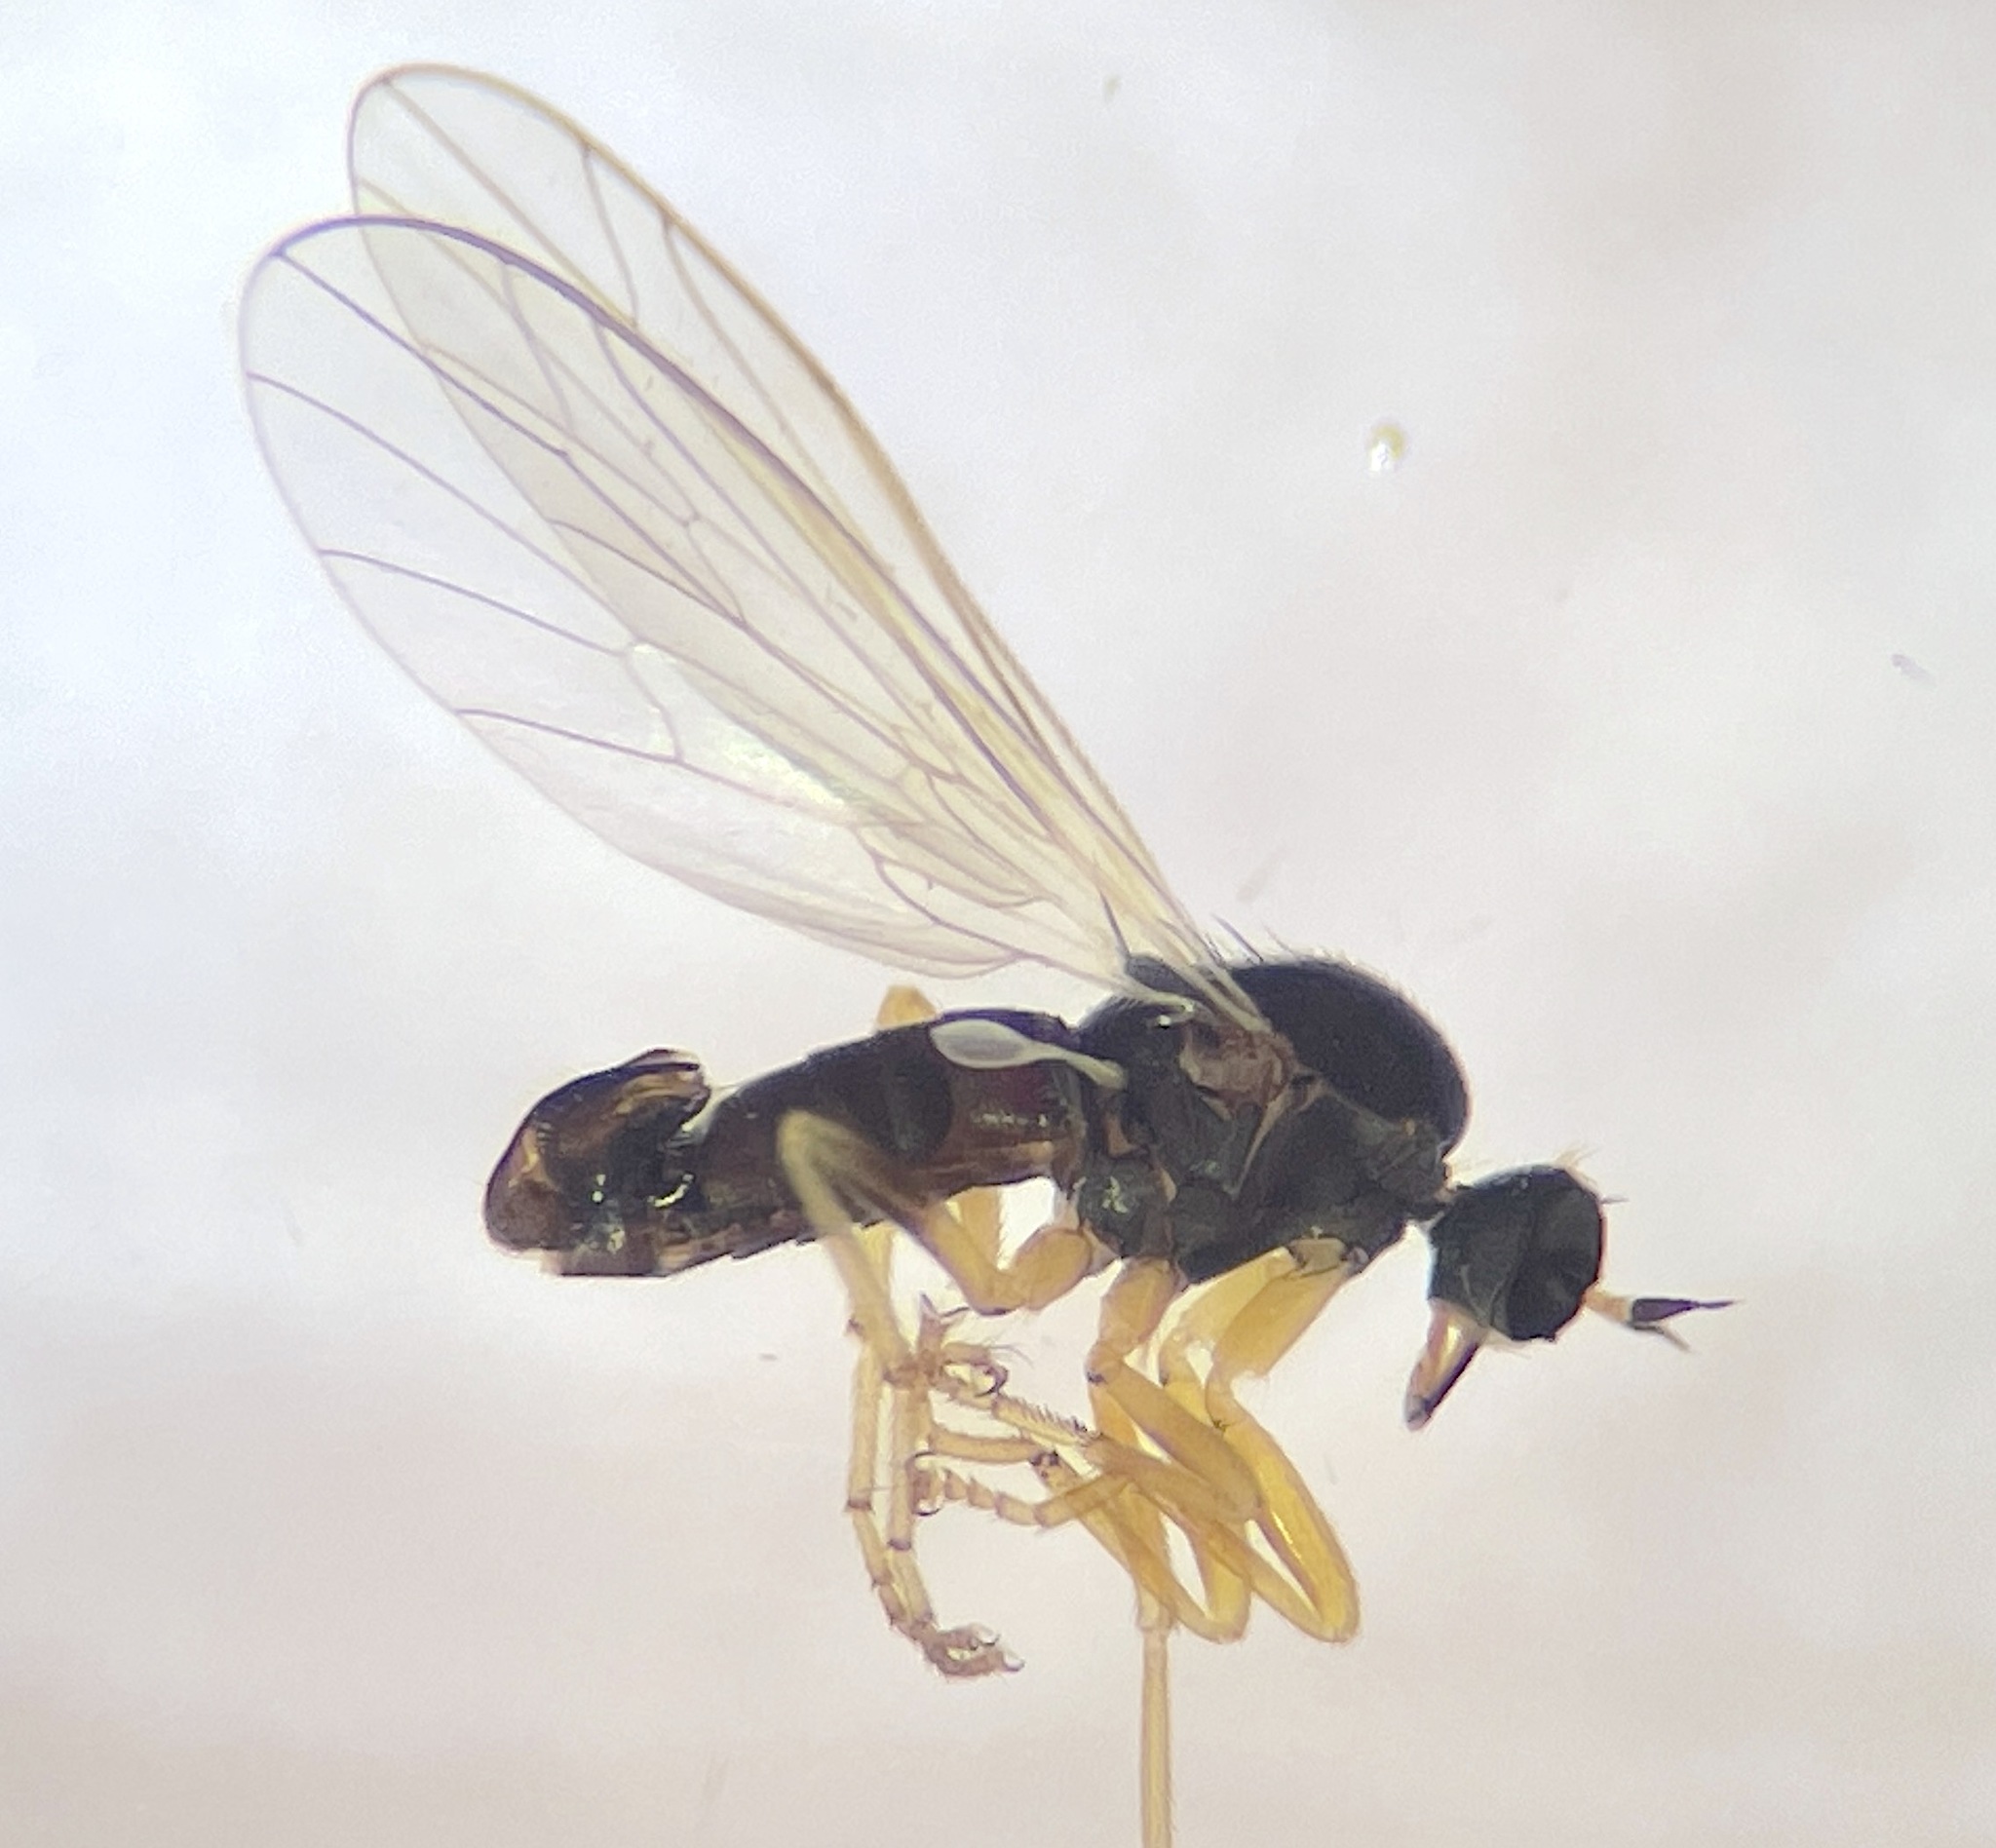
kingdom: Animalia
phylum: Arthropoda
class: Insecta
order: Diptera
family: Empididae
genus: Hilarempis
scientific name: Hilarempis subdita
